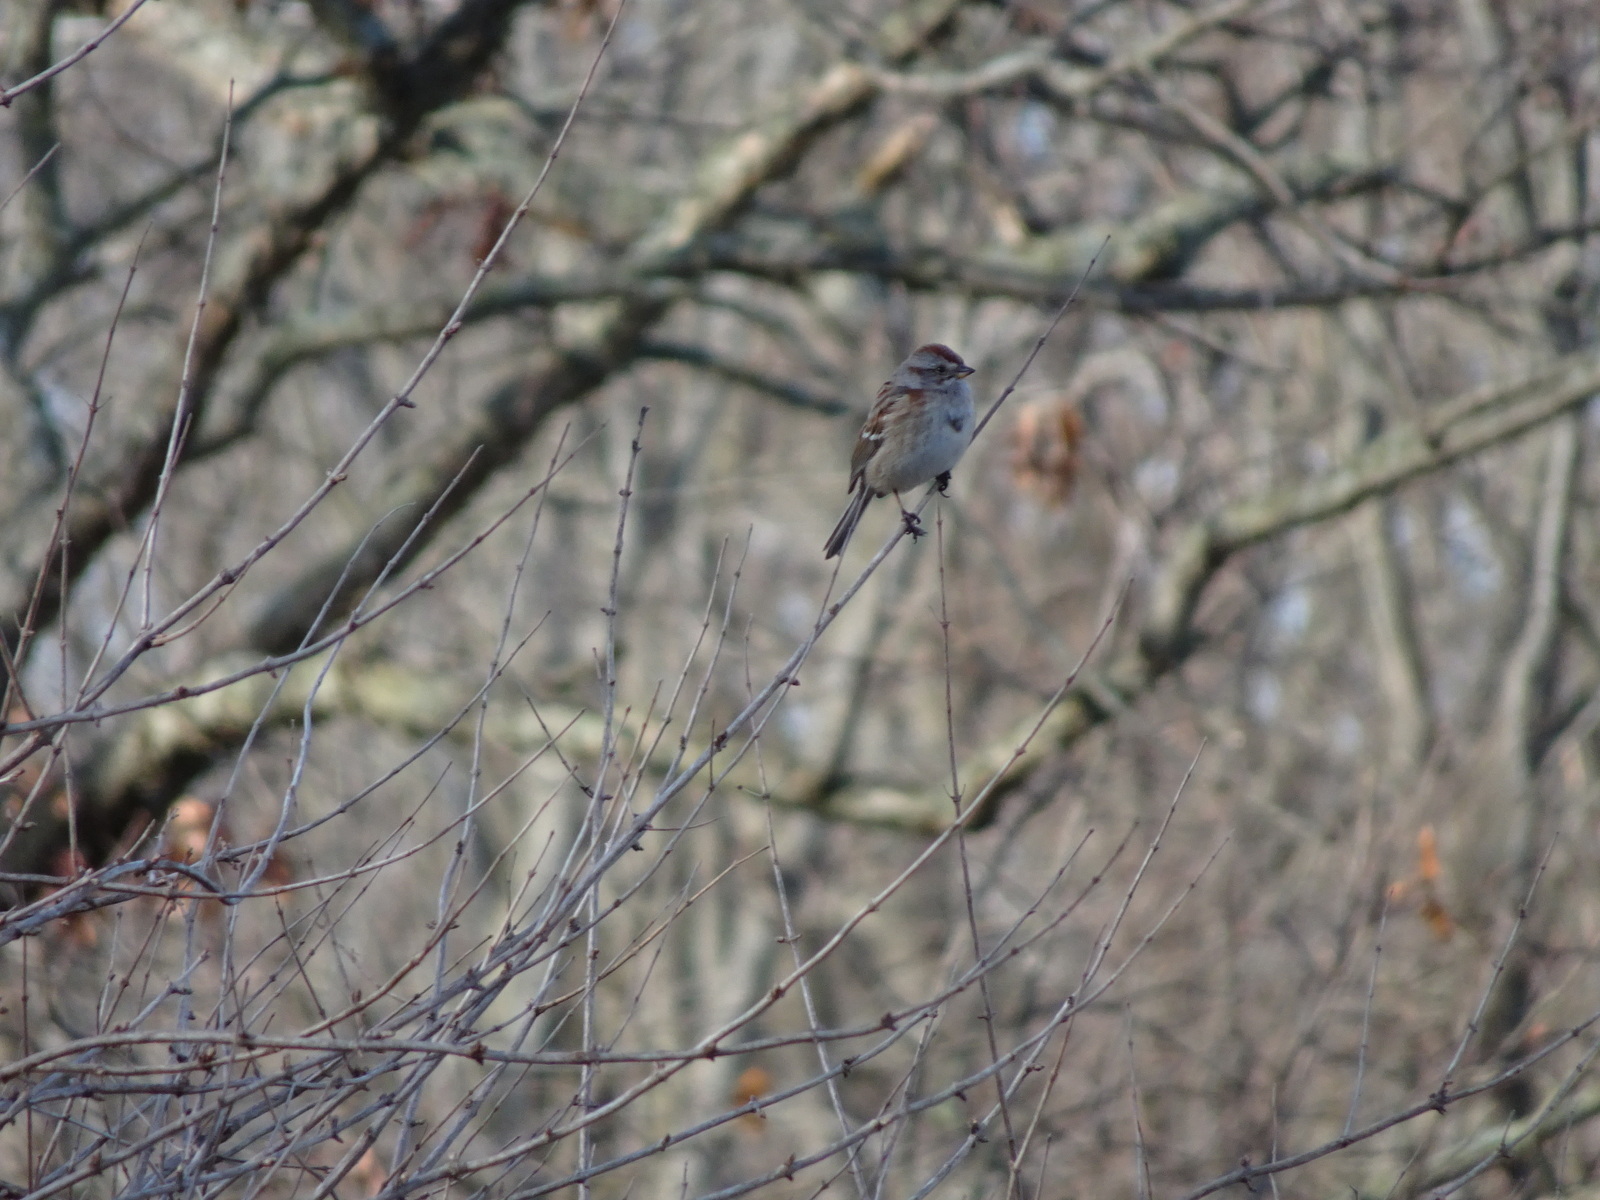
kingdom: Animalia
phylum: Chordata
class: Aves
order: Passeriformes
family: Passerellidae
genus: Spizelloides
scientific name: Spizelloides arborea
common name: American tree sparrow
